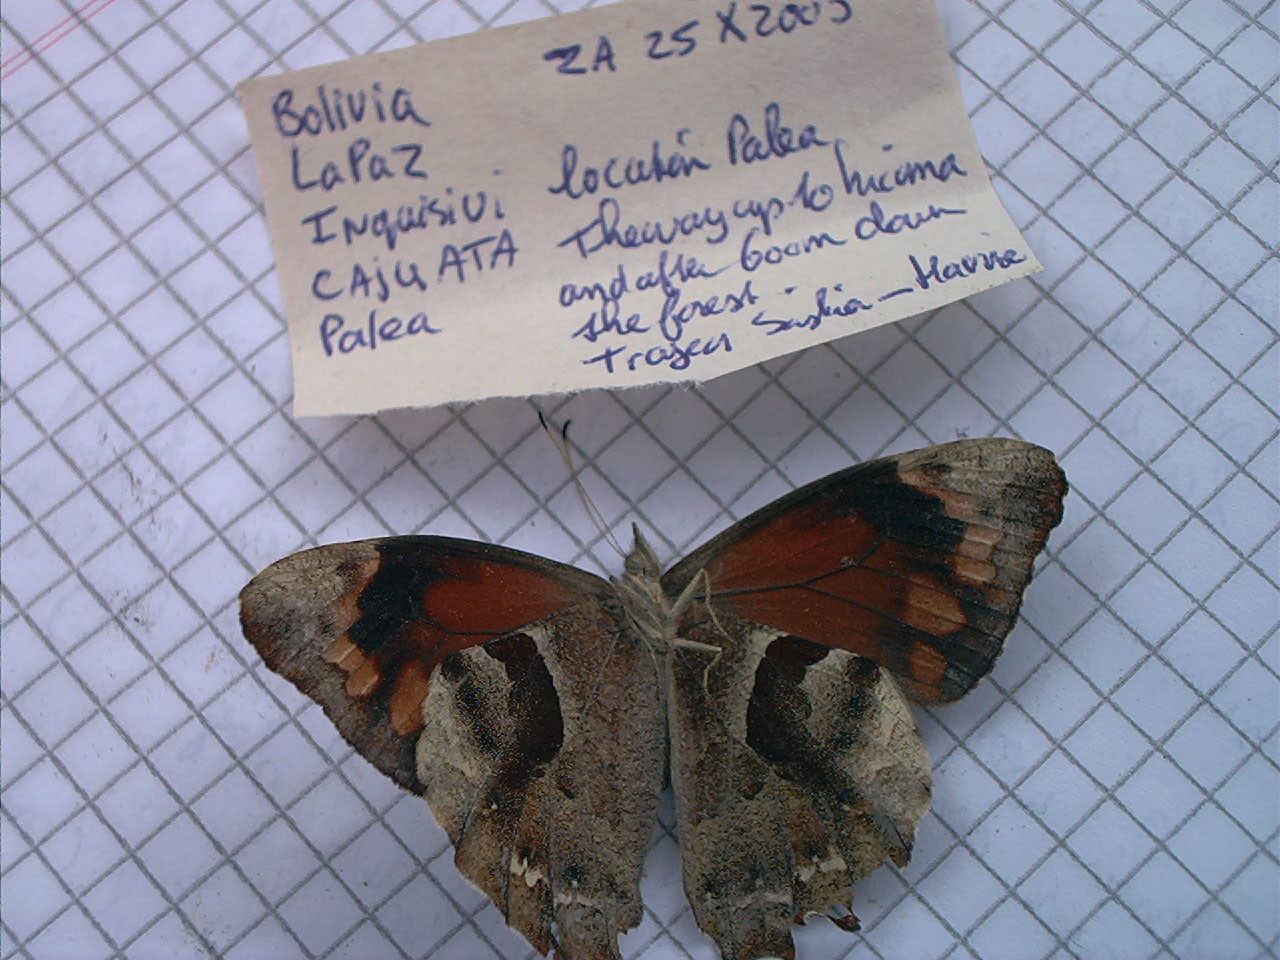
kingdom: Animalia
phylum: Arthropoda
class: Insecta
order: Lepidoptera
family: Nymphalidae
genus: Lasiophila
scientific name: Lasiophila orbifera
